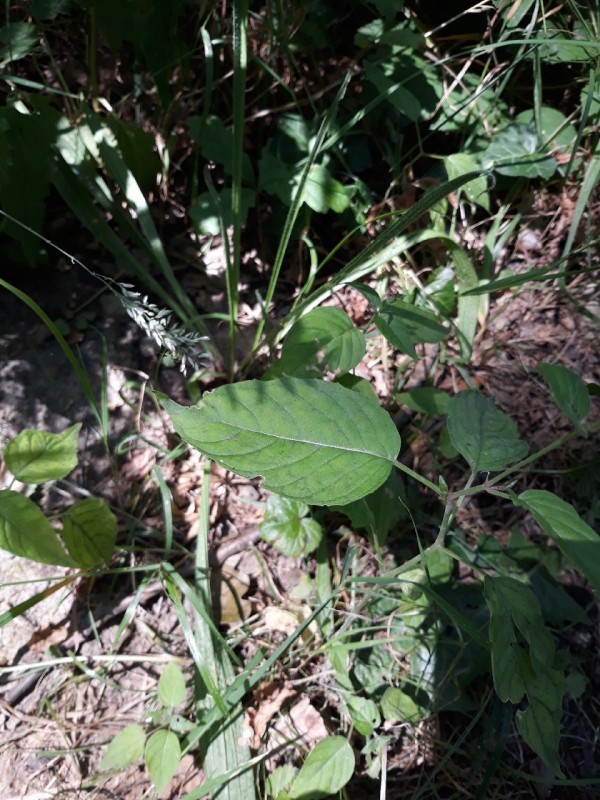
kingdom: Plantae
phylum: Tracheophyta
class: Magnoliopsida
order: Myrtales
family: Onagraceae
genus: Circaea
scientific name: Circaea lutetiana
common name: Enchanter's-nightshade
